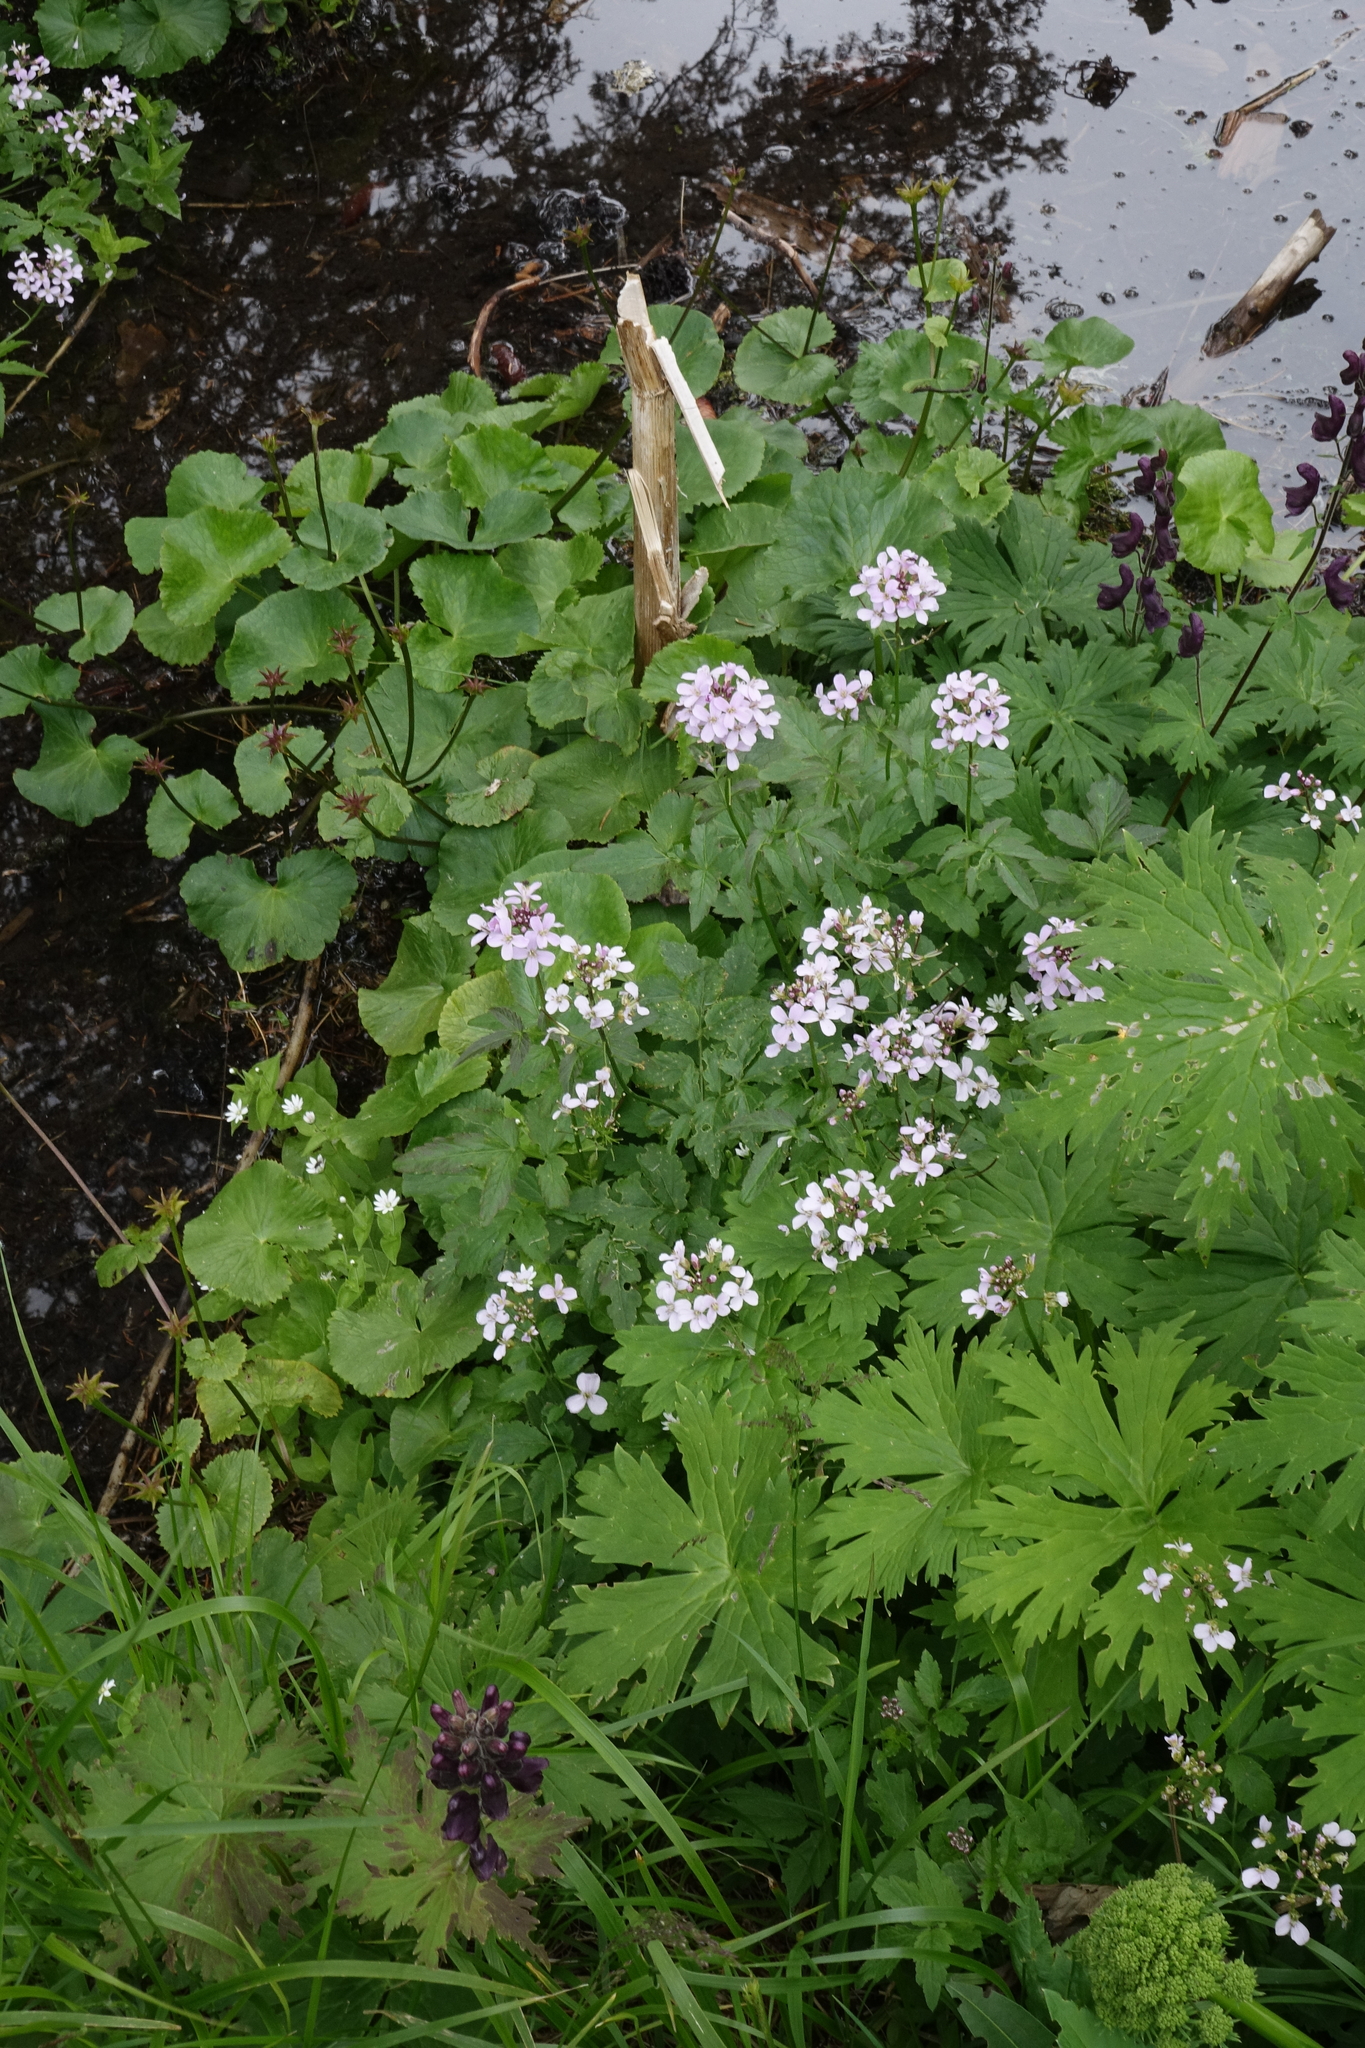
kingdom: Plantae
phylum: Tracheophyta
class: Magnoliopsida
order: Brassicales
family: Brassicaceae
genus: Cardamine
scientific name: Cardamine macrophylla
